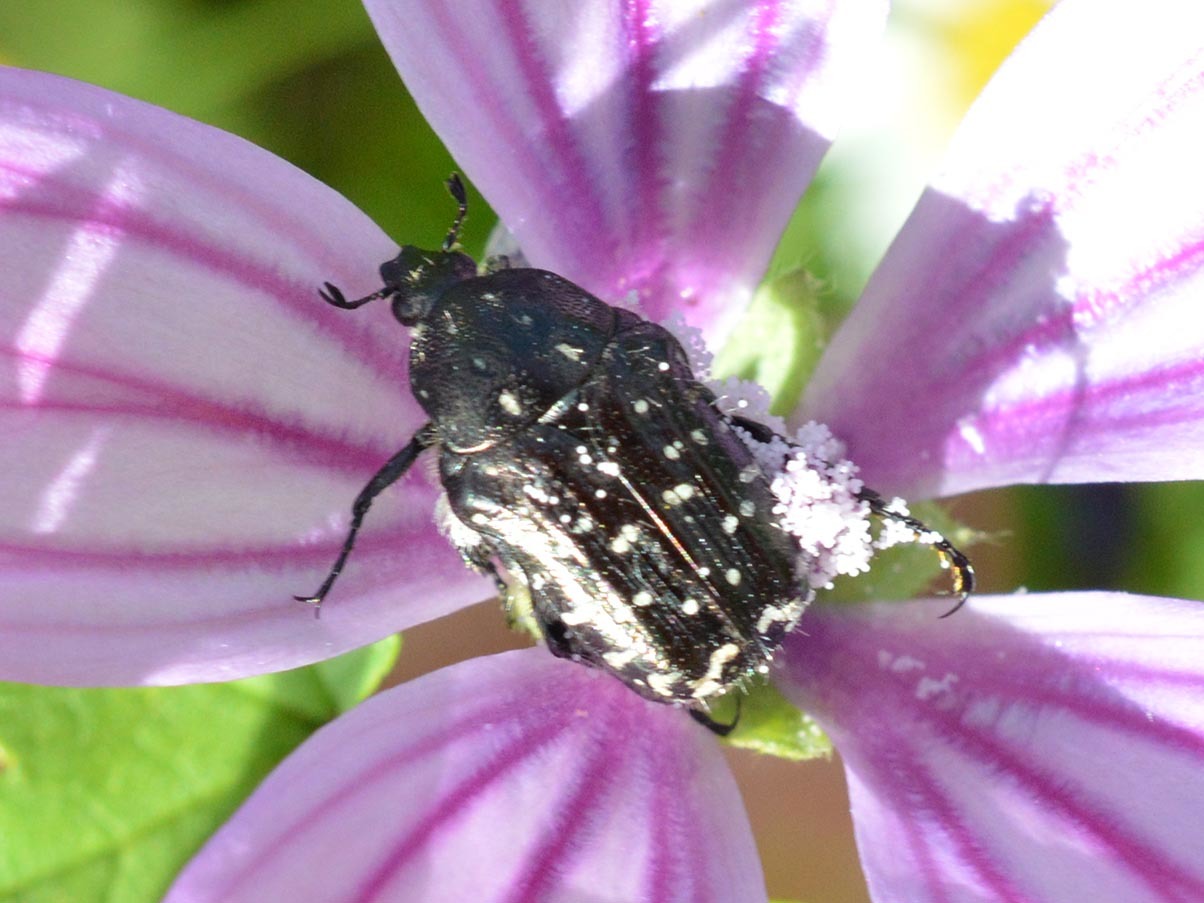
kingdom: Animalia
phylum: Arthropoda
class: Insecta
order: Coleoptera
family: Scarabaeidae
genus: Oxythyrea
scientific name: Oxythyrea funesta
